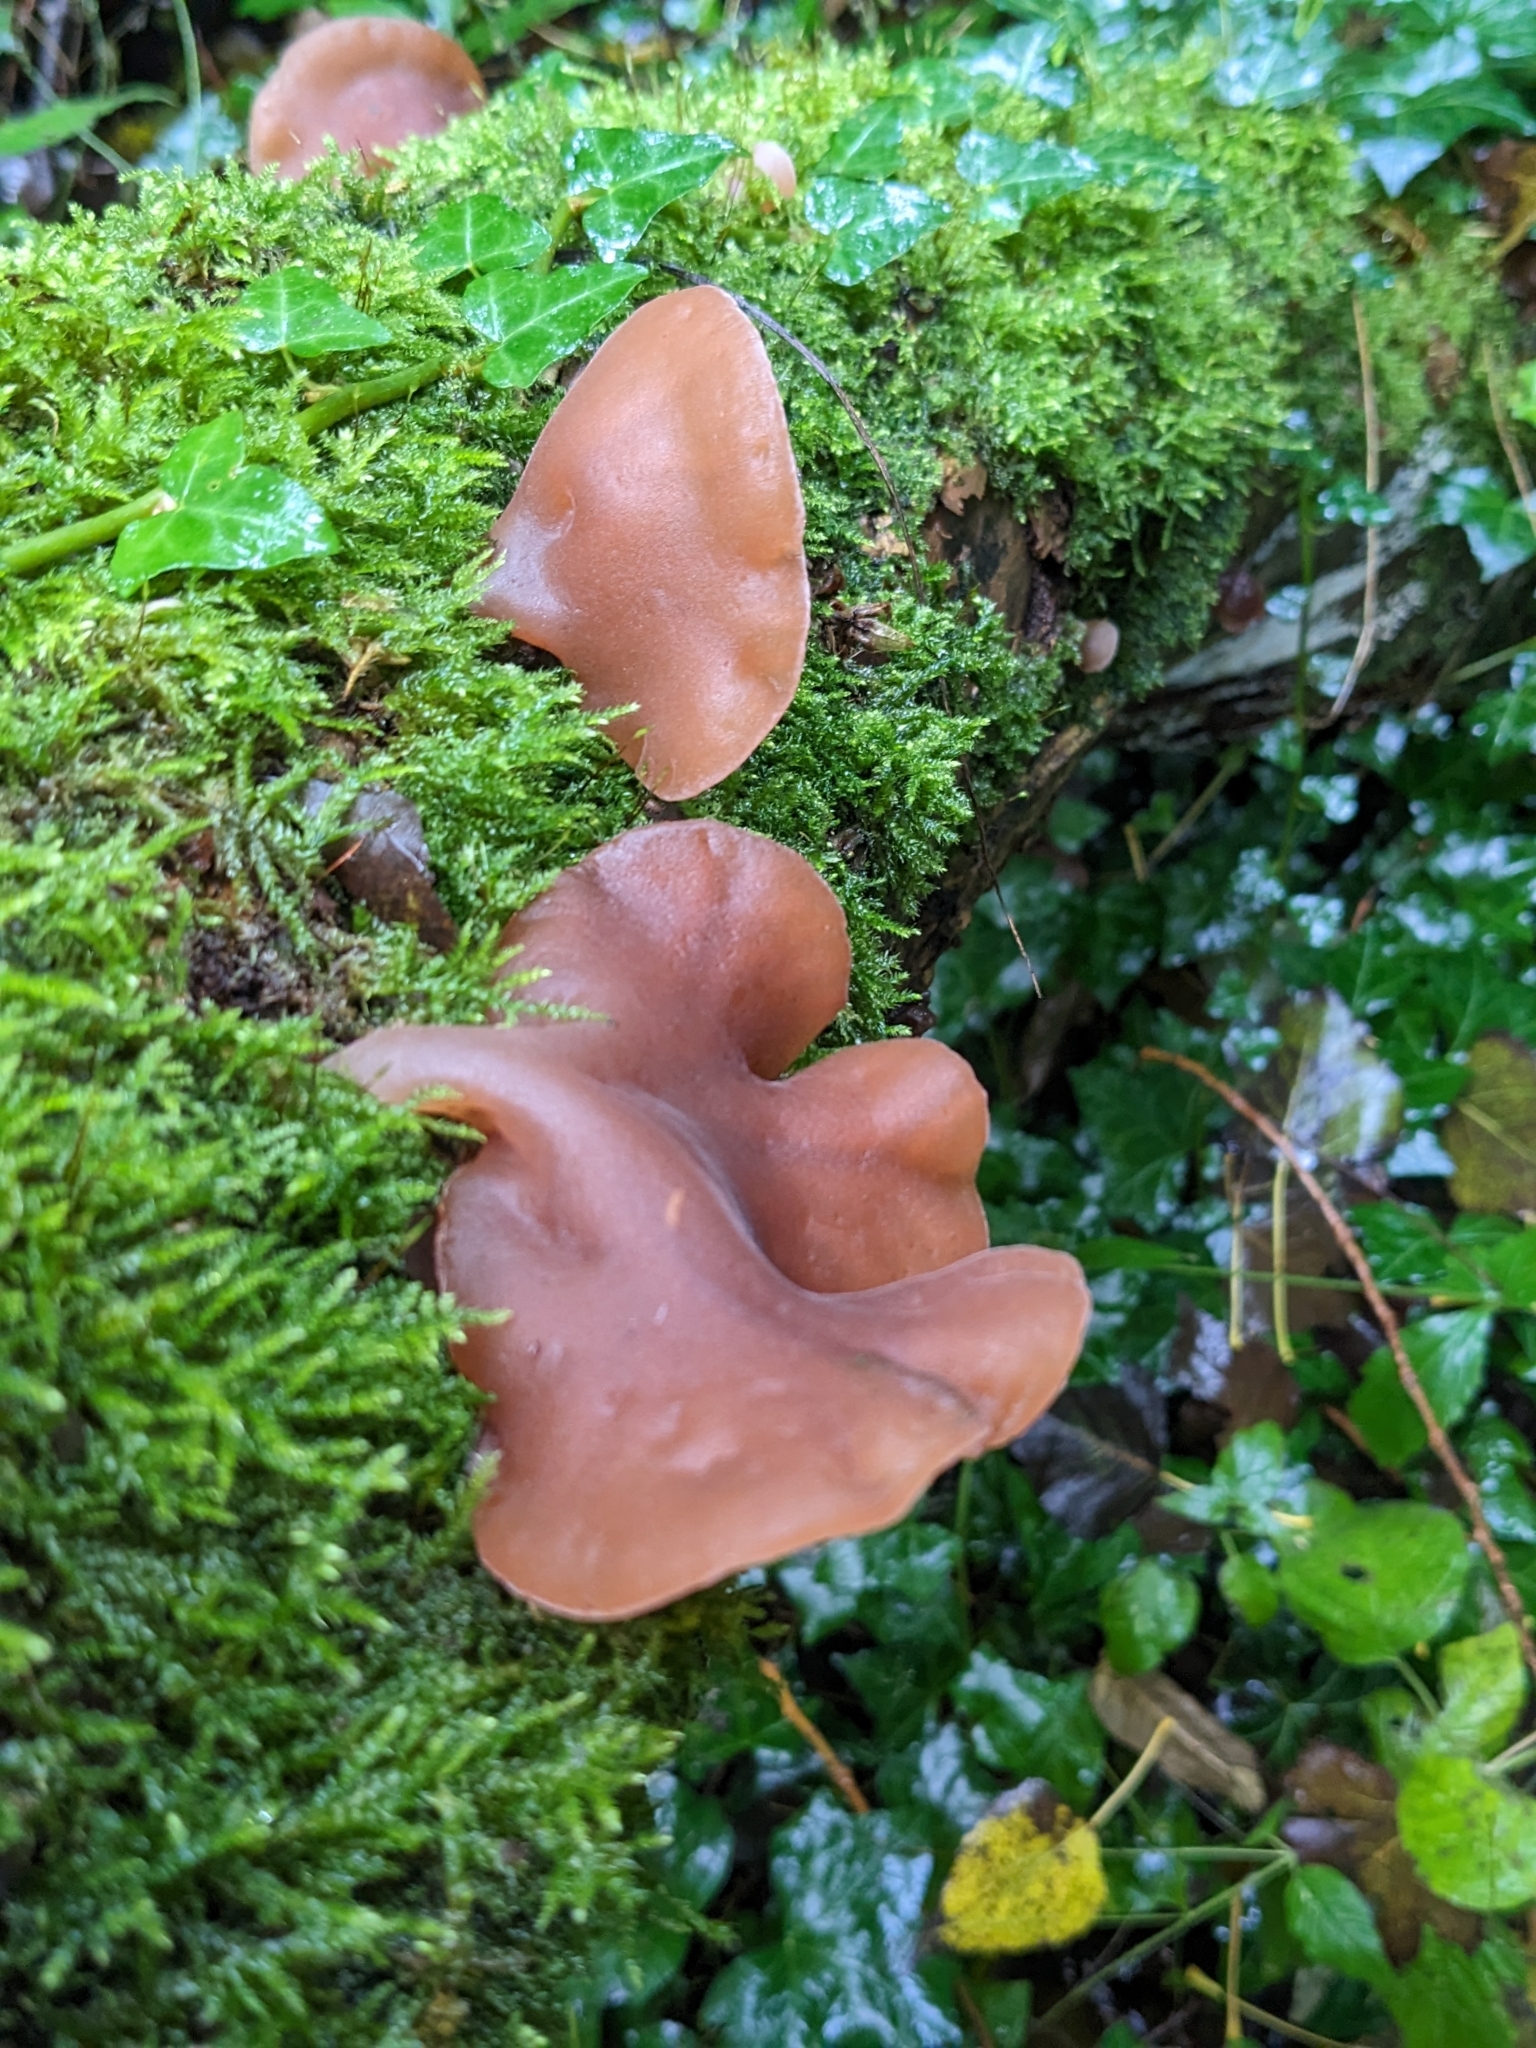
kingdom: Fungi
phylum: Basidiomycota
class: Agaricomycetes
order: Auriculariales
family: Auriculariaceae
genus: Auricularia
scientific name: Auricularia auricula-judae
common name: Jelly ear
